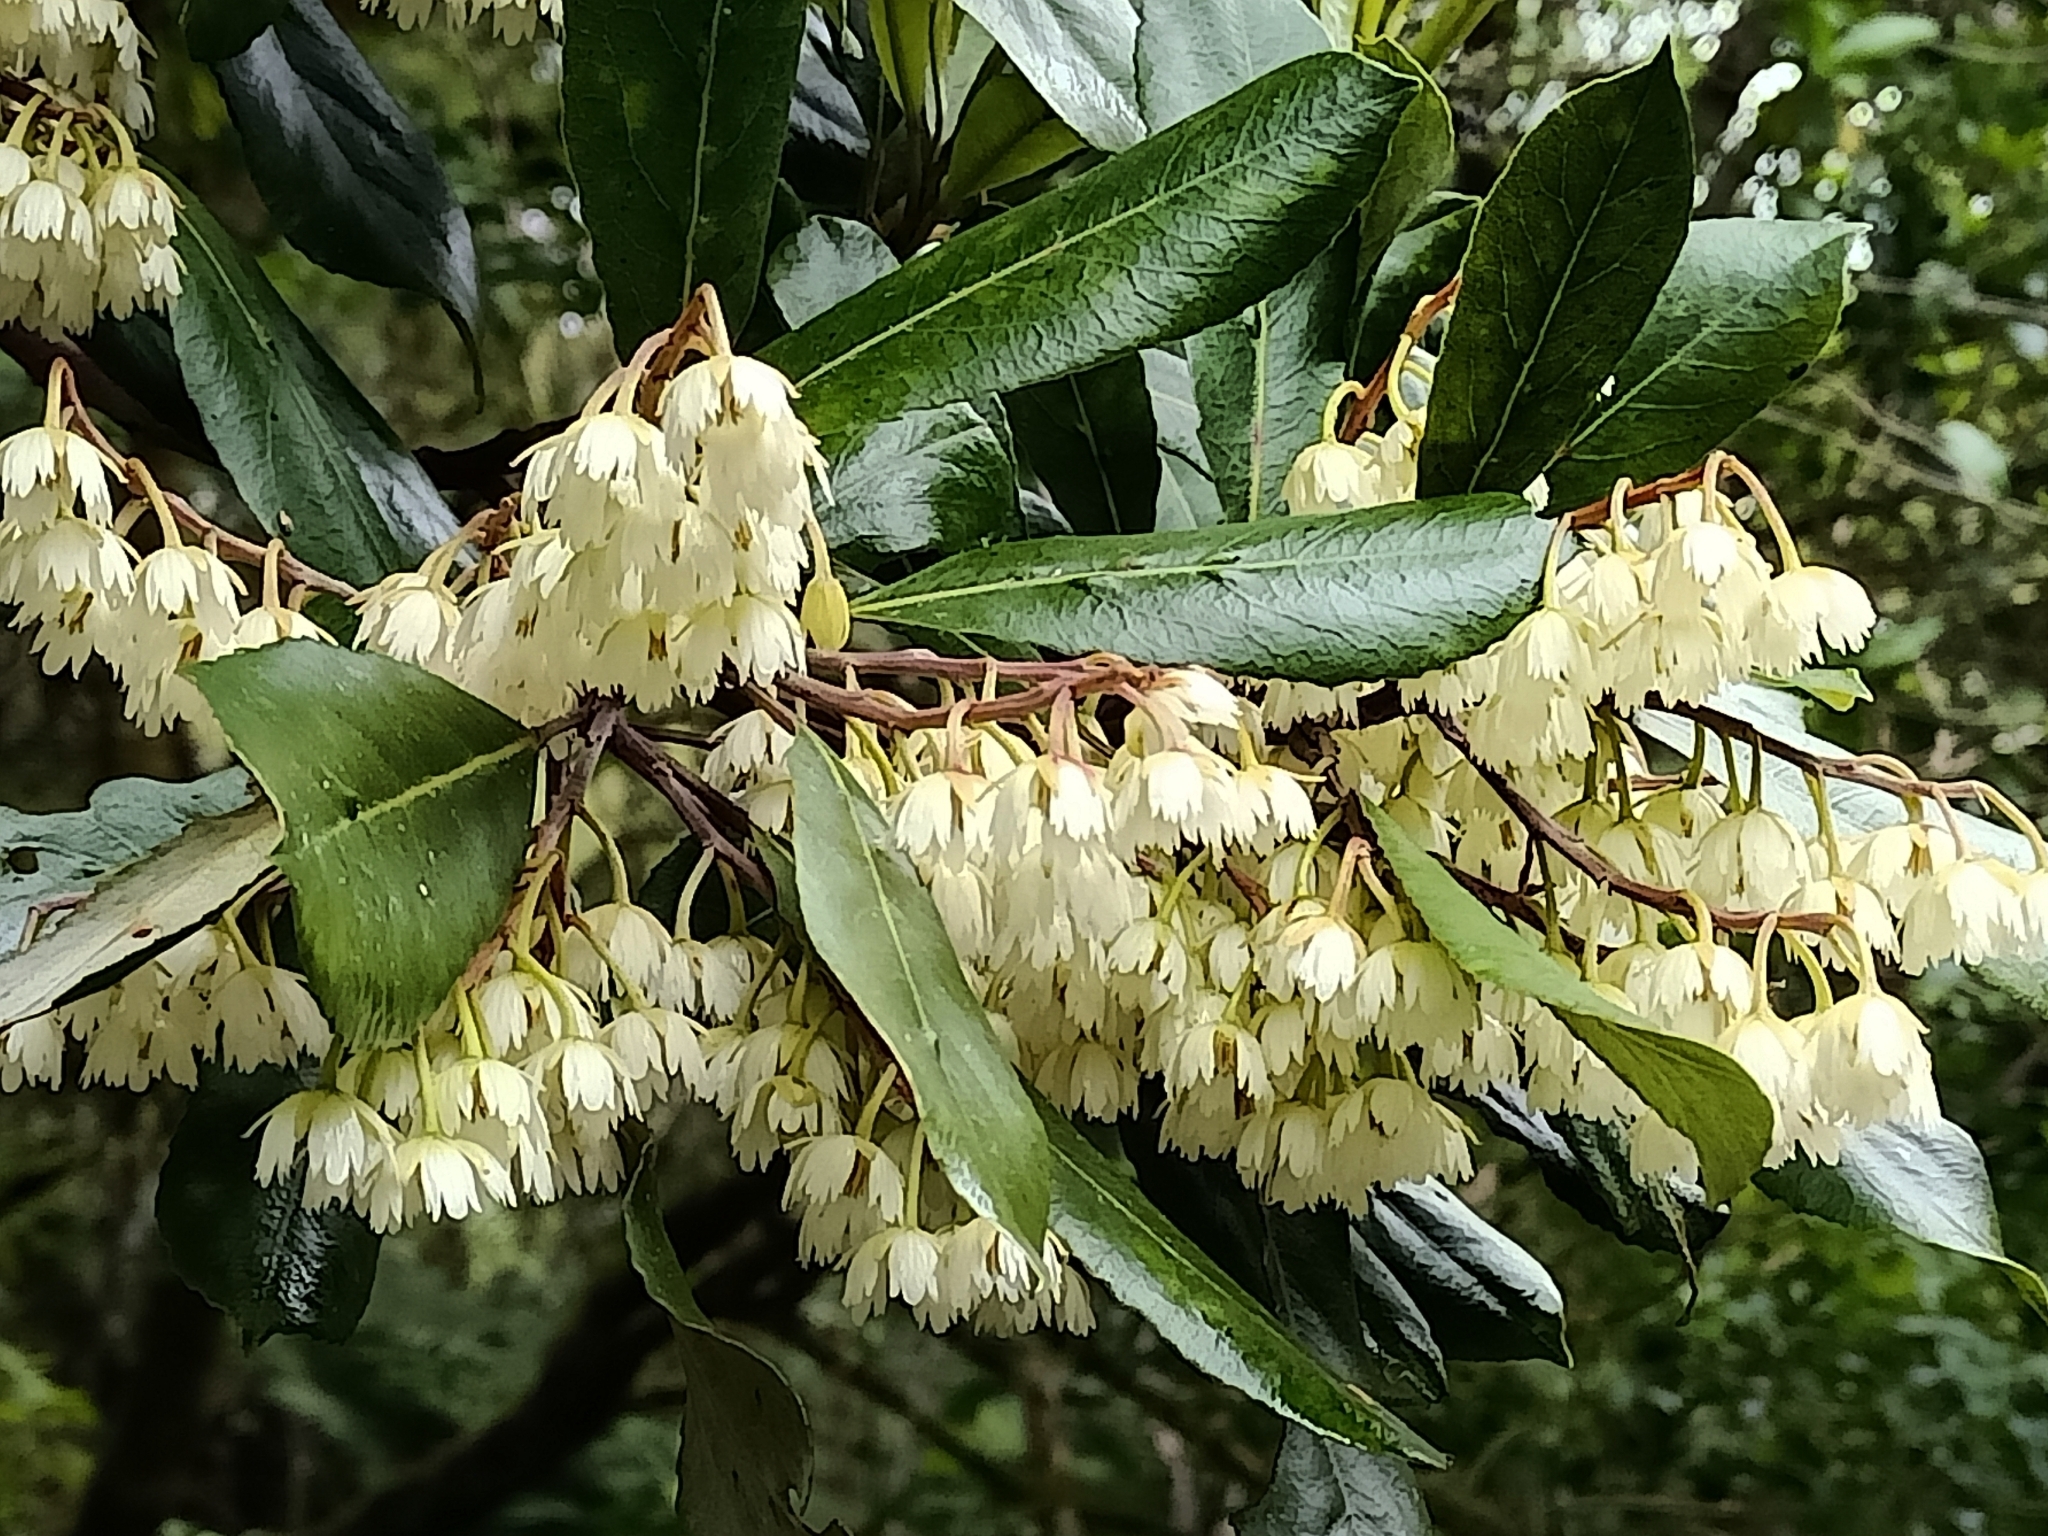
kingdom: Plantae
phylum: Tracheophyta
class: Magnoliopsida
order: Oxalidales
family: Elaeocarpaceae
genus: Elaeocarpus
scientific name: Elaeocarpus dentatus
